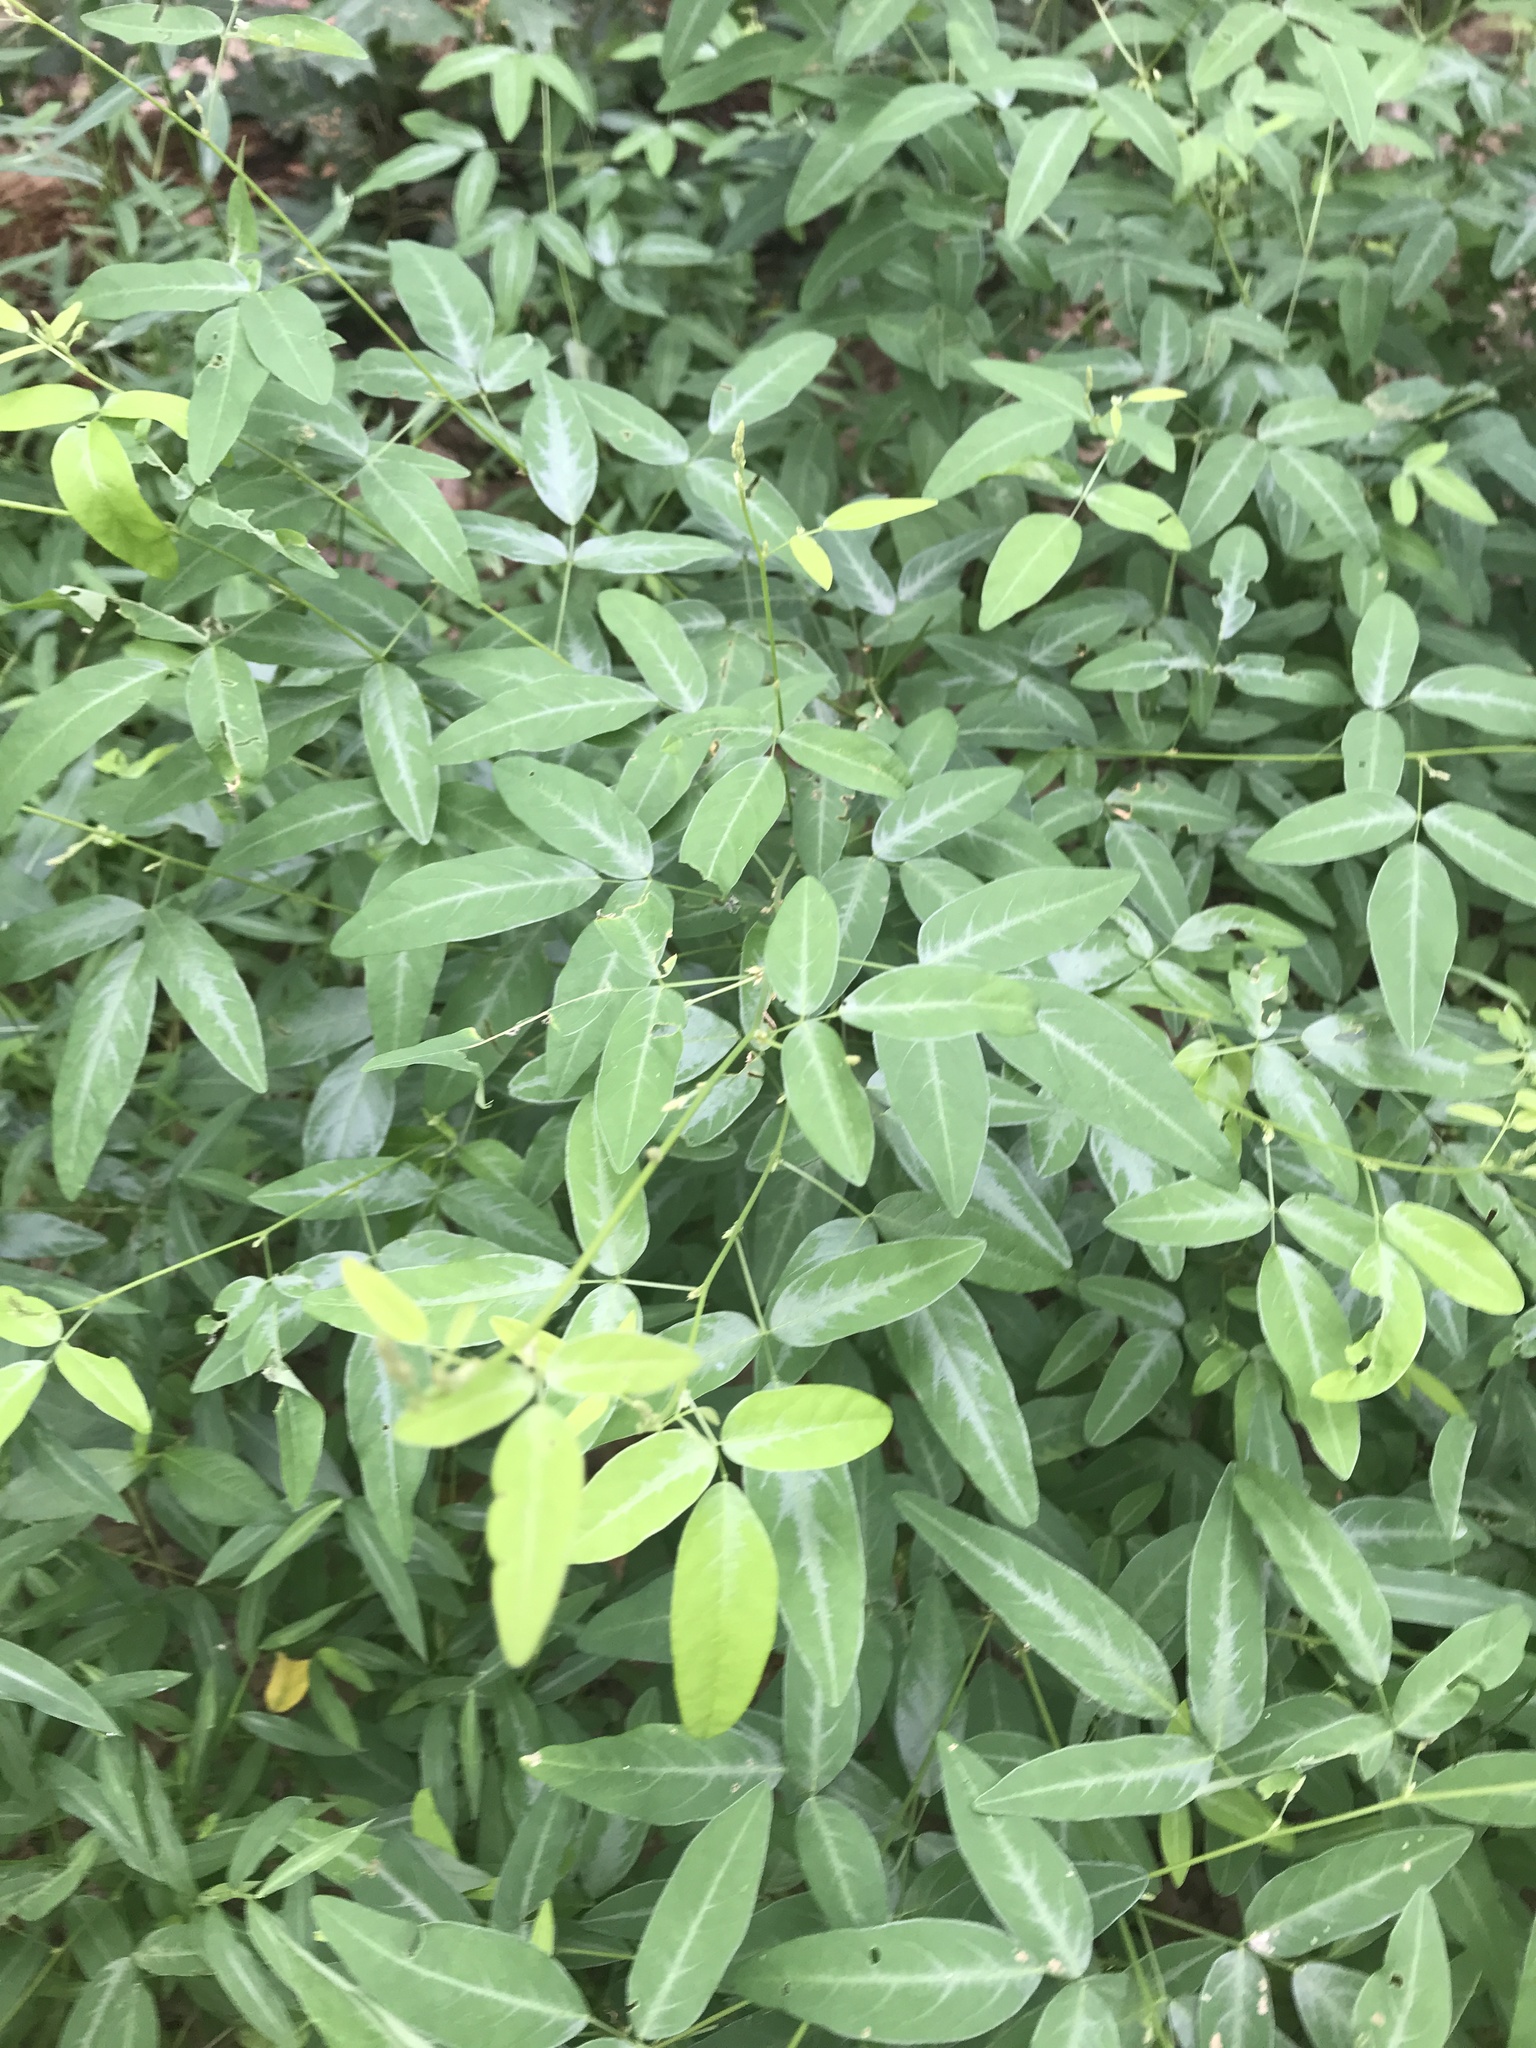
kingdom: Plantae
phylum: Tracheophyta
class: Magnoliopsida
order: Fabales
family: Fabaceae
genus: Desmodium
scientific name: Desmodium paniculatum
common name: Panicled tick-clover
